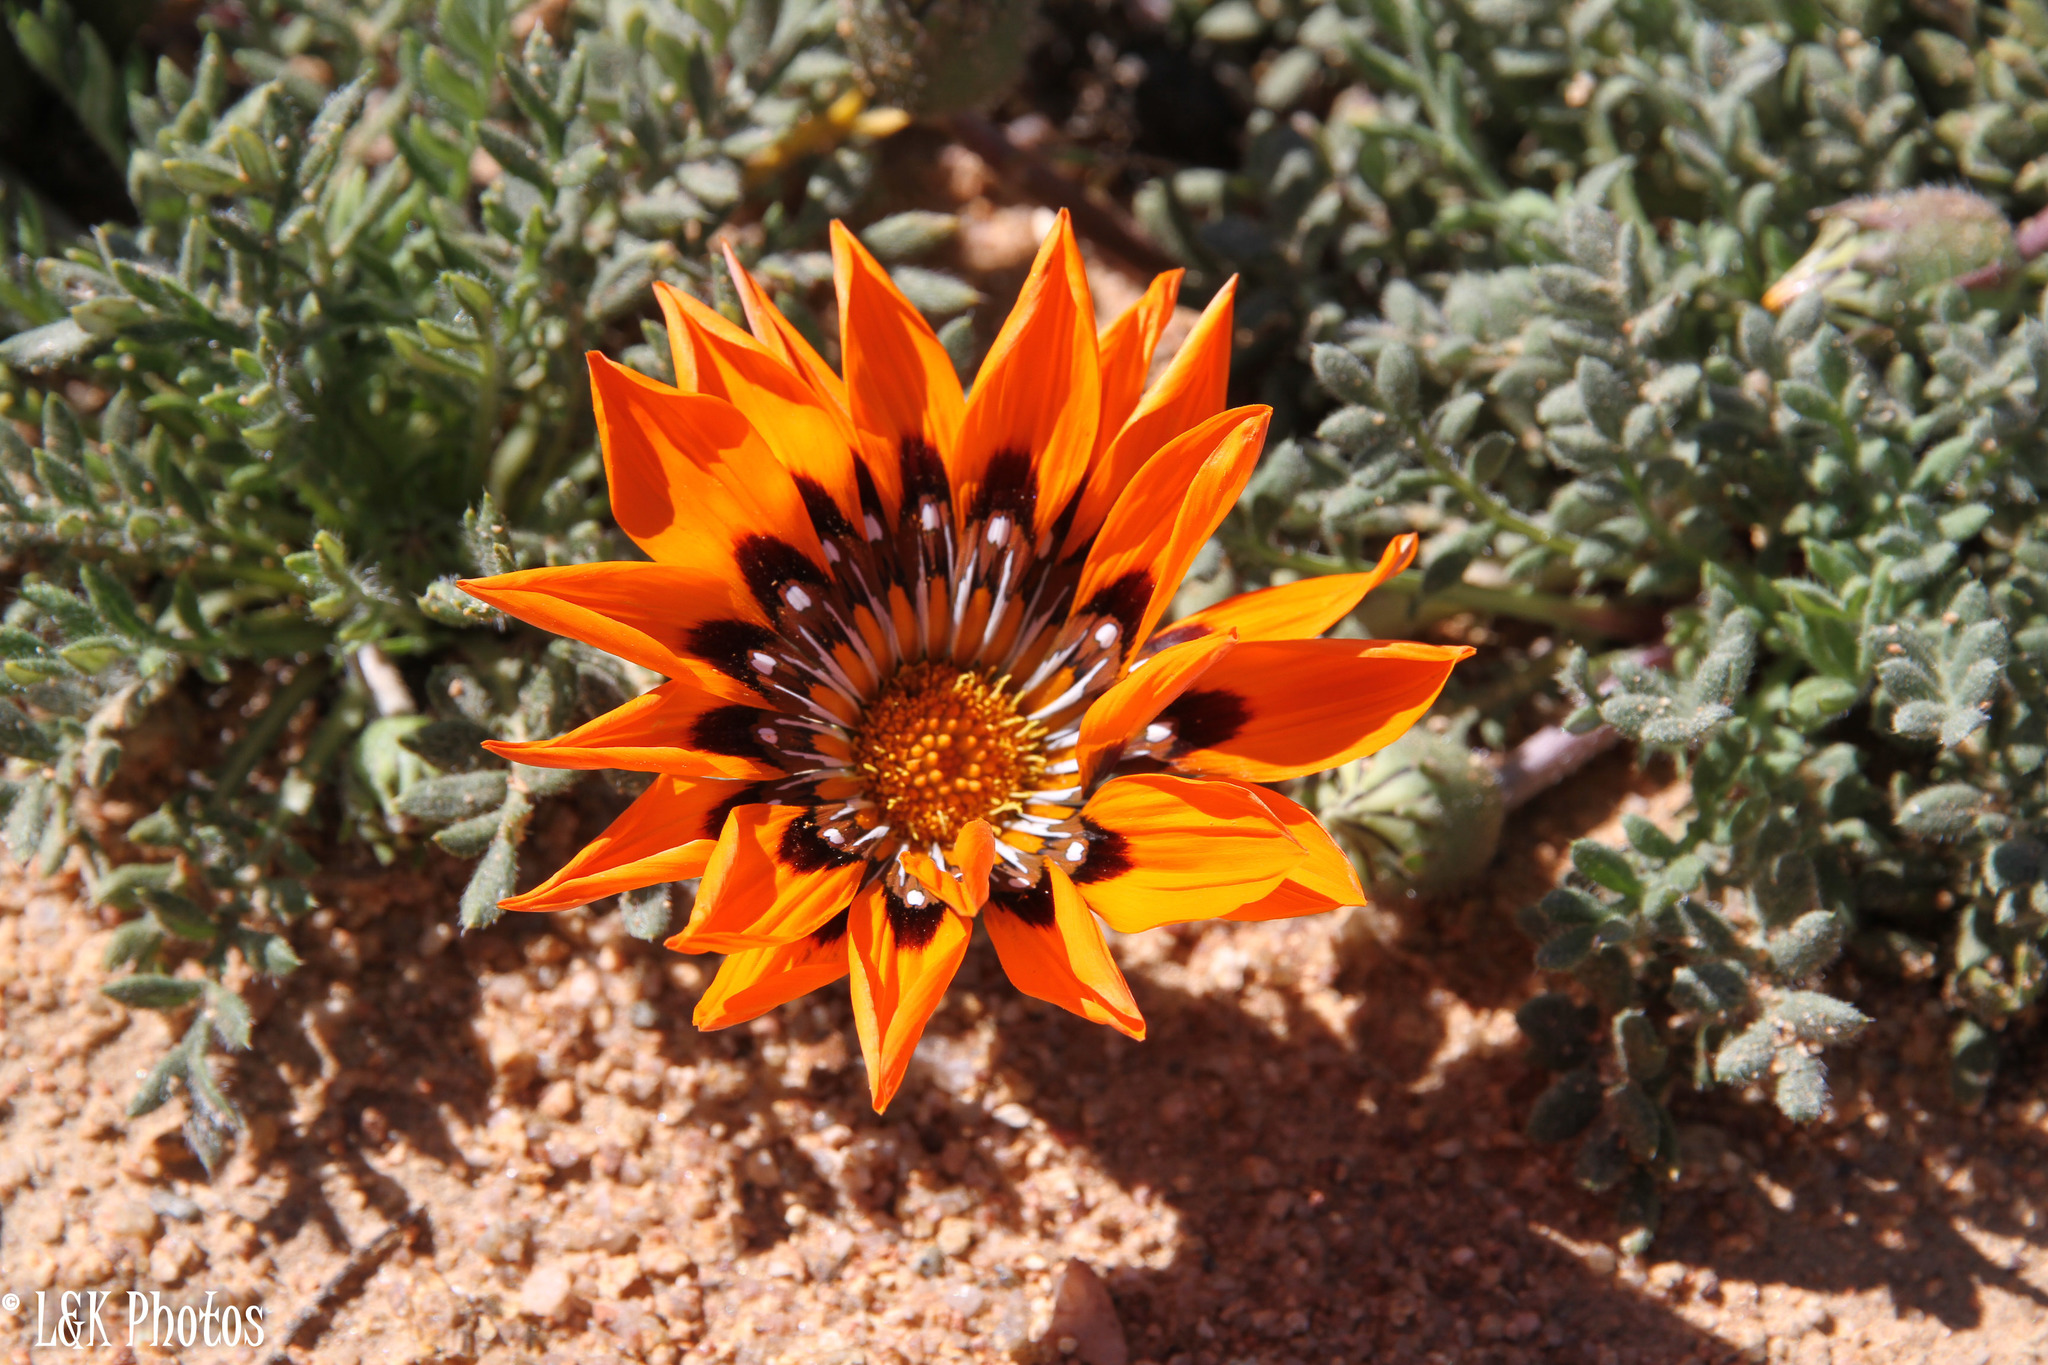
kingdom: Plantae
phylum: Tracheophyta
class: Magnoliopsida
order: Asterales
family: Asteraceae
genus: Gazania
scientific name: Gazania leiopoda
